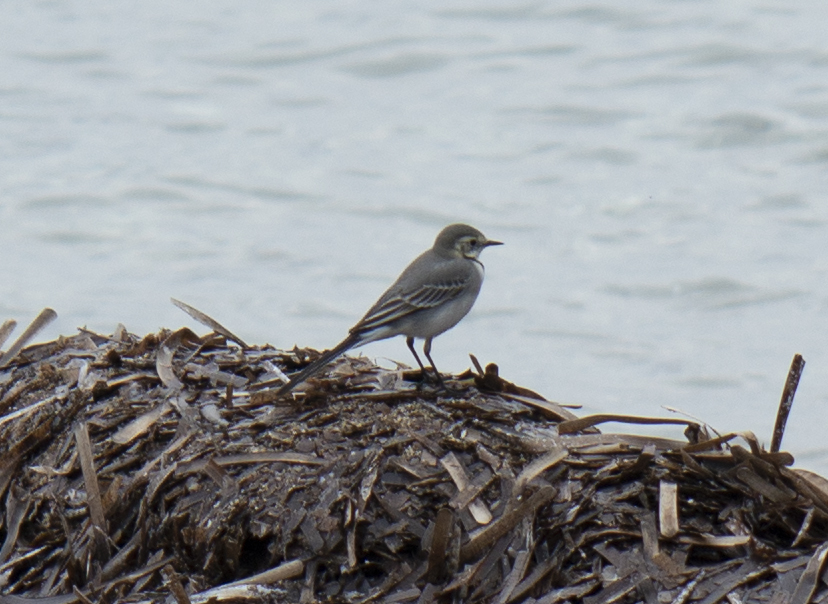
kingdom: Animalia
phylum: Chordata
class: Aves
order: Passeriformes
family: Motacillidae
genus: Motacilla
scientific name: Motacilla alba
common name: White wagtail
